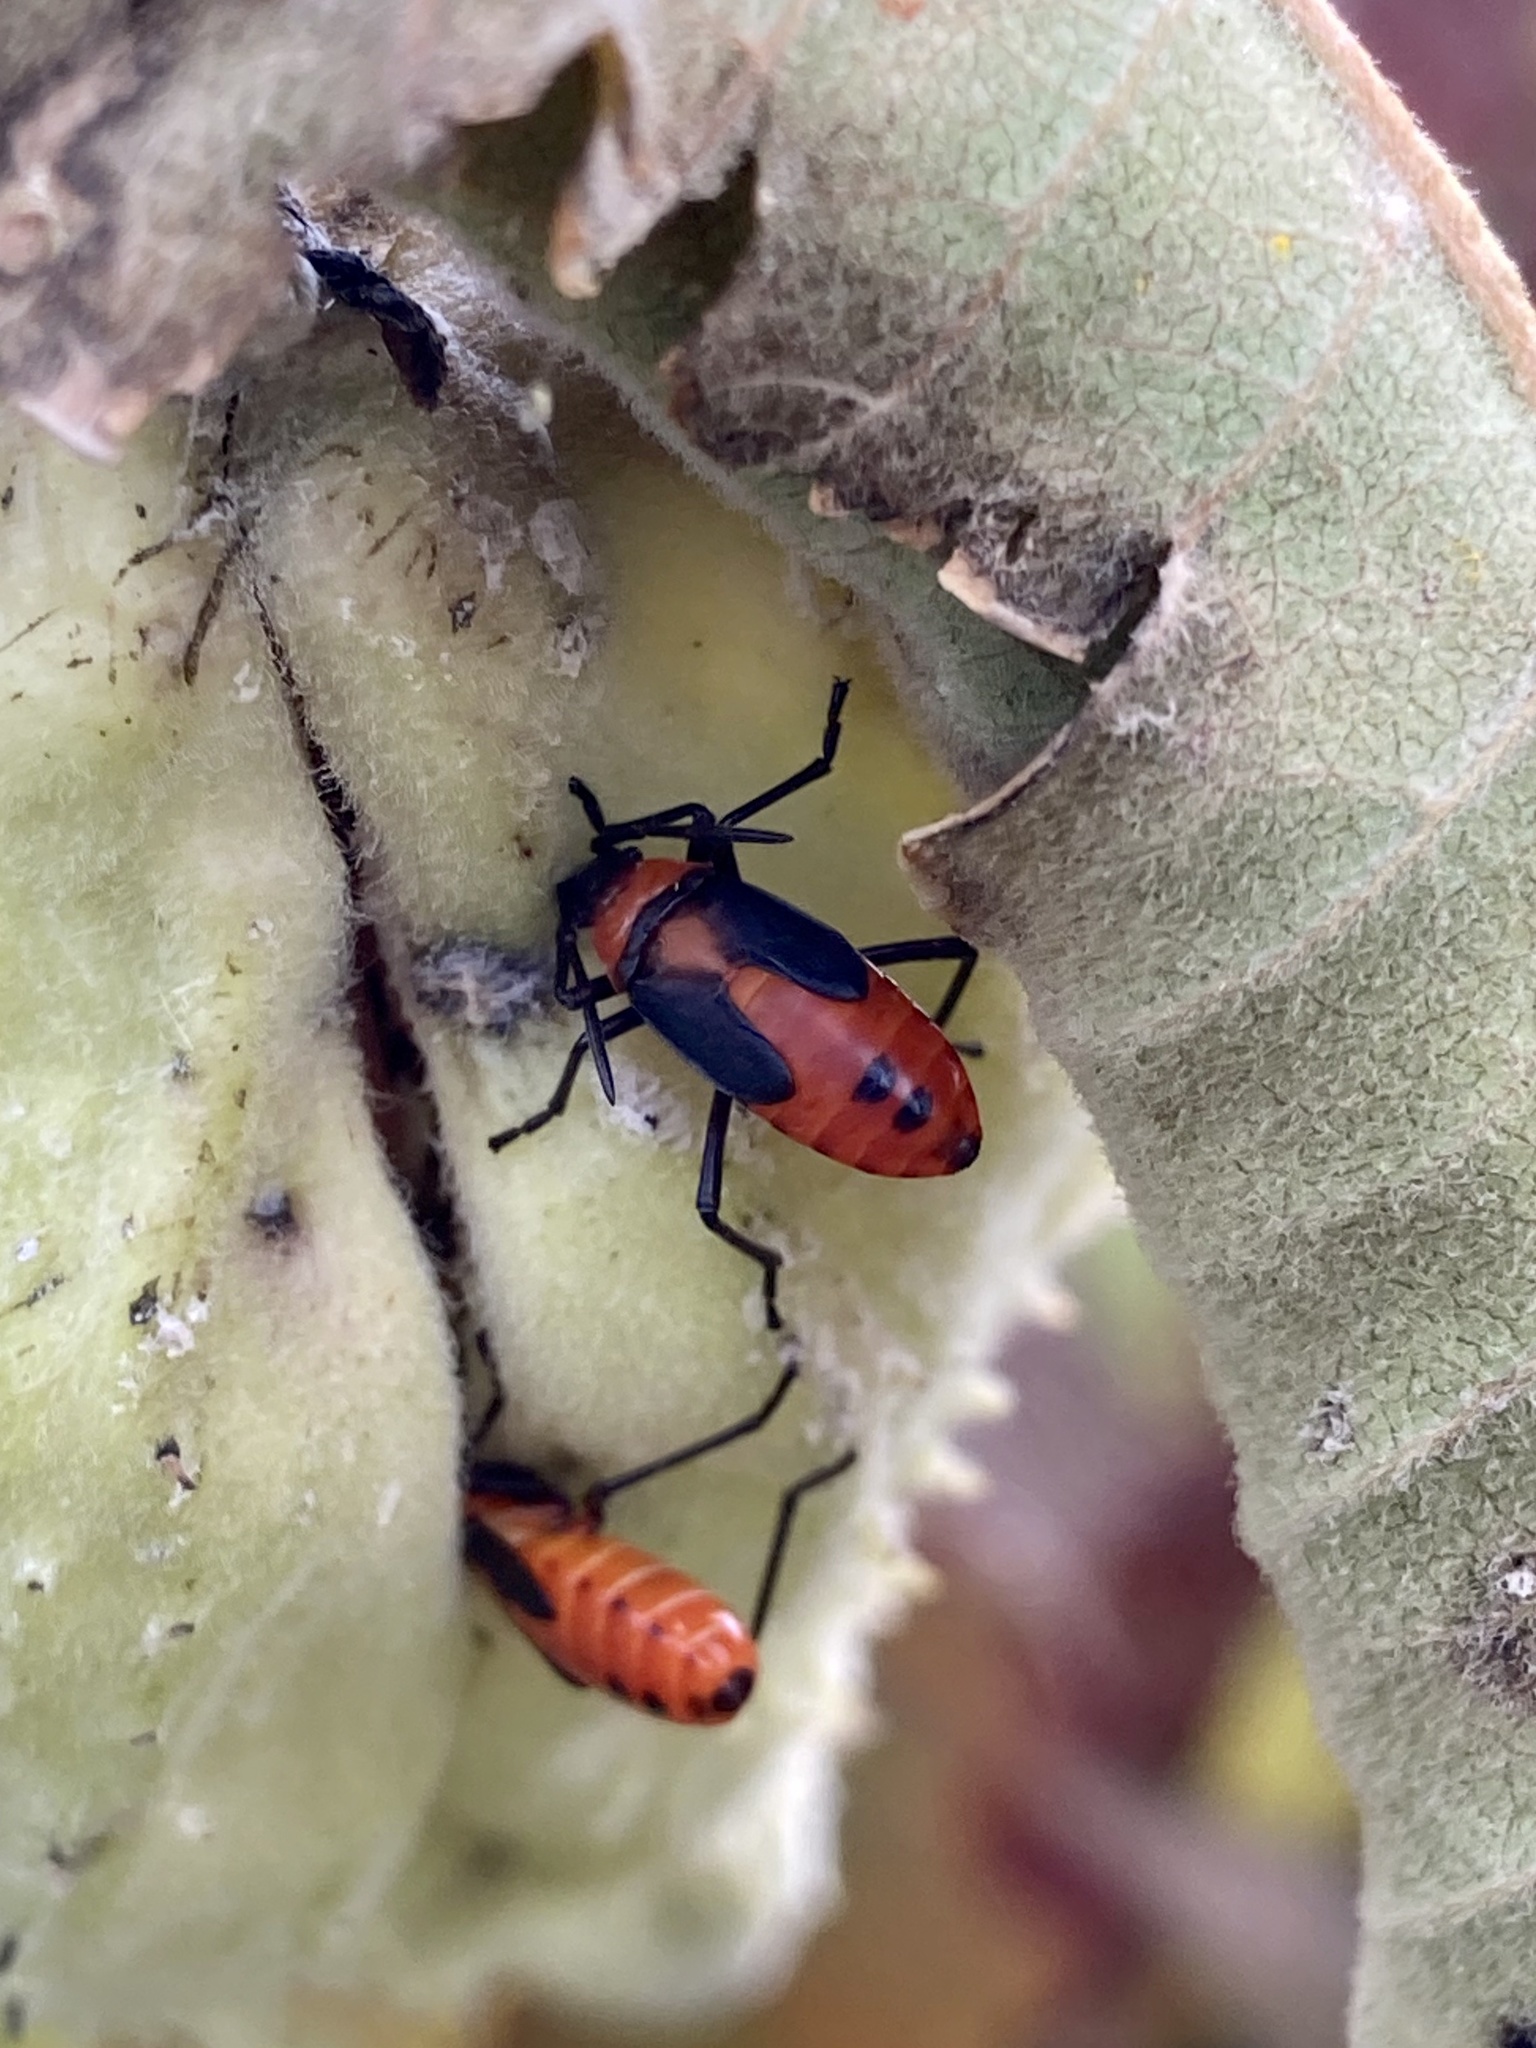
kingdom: Animalia
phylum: Arthropoda
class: Insecta
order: Hemiptera
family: Lygaeidae
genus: Oncopeltus
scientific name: Oncopeltus fasciatus
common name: Large milkweed bug
